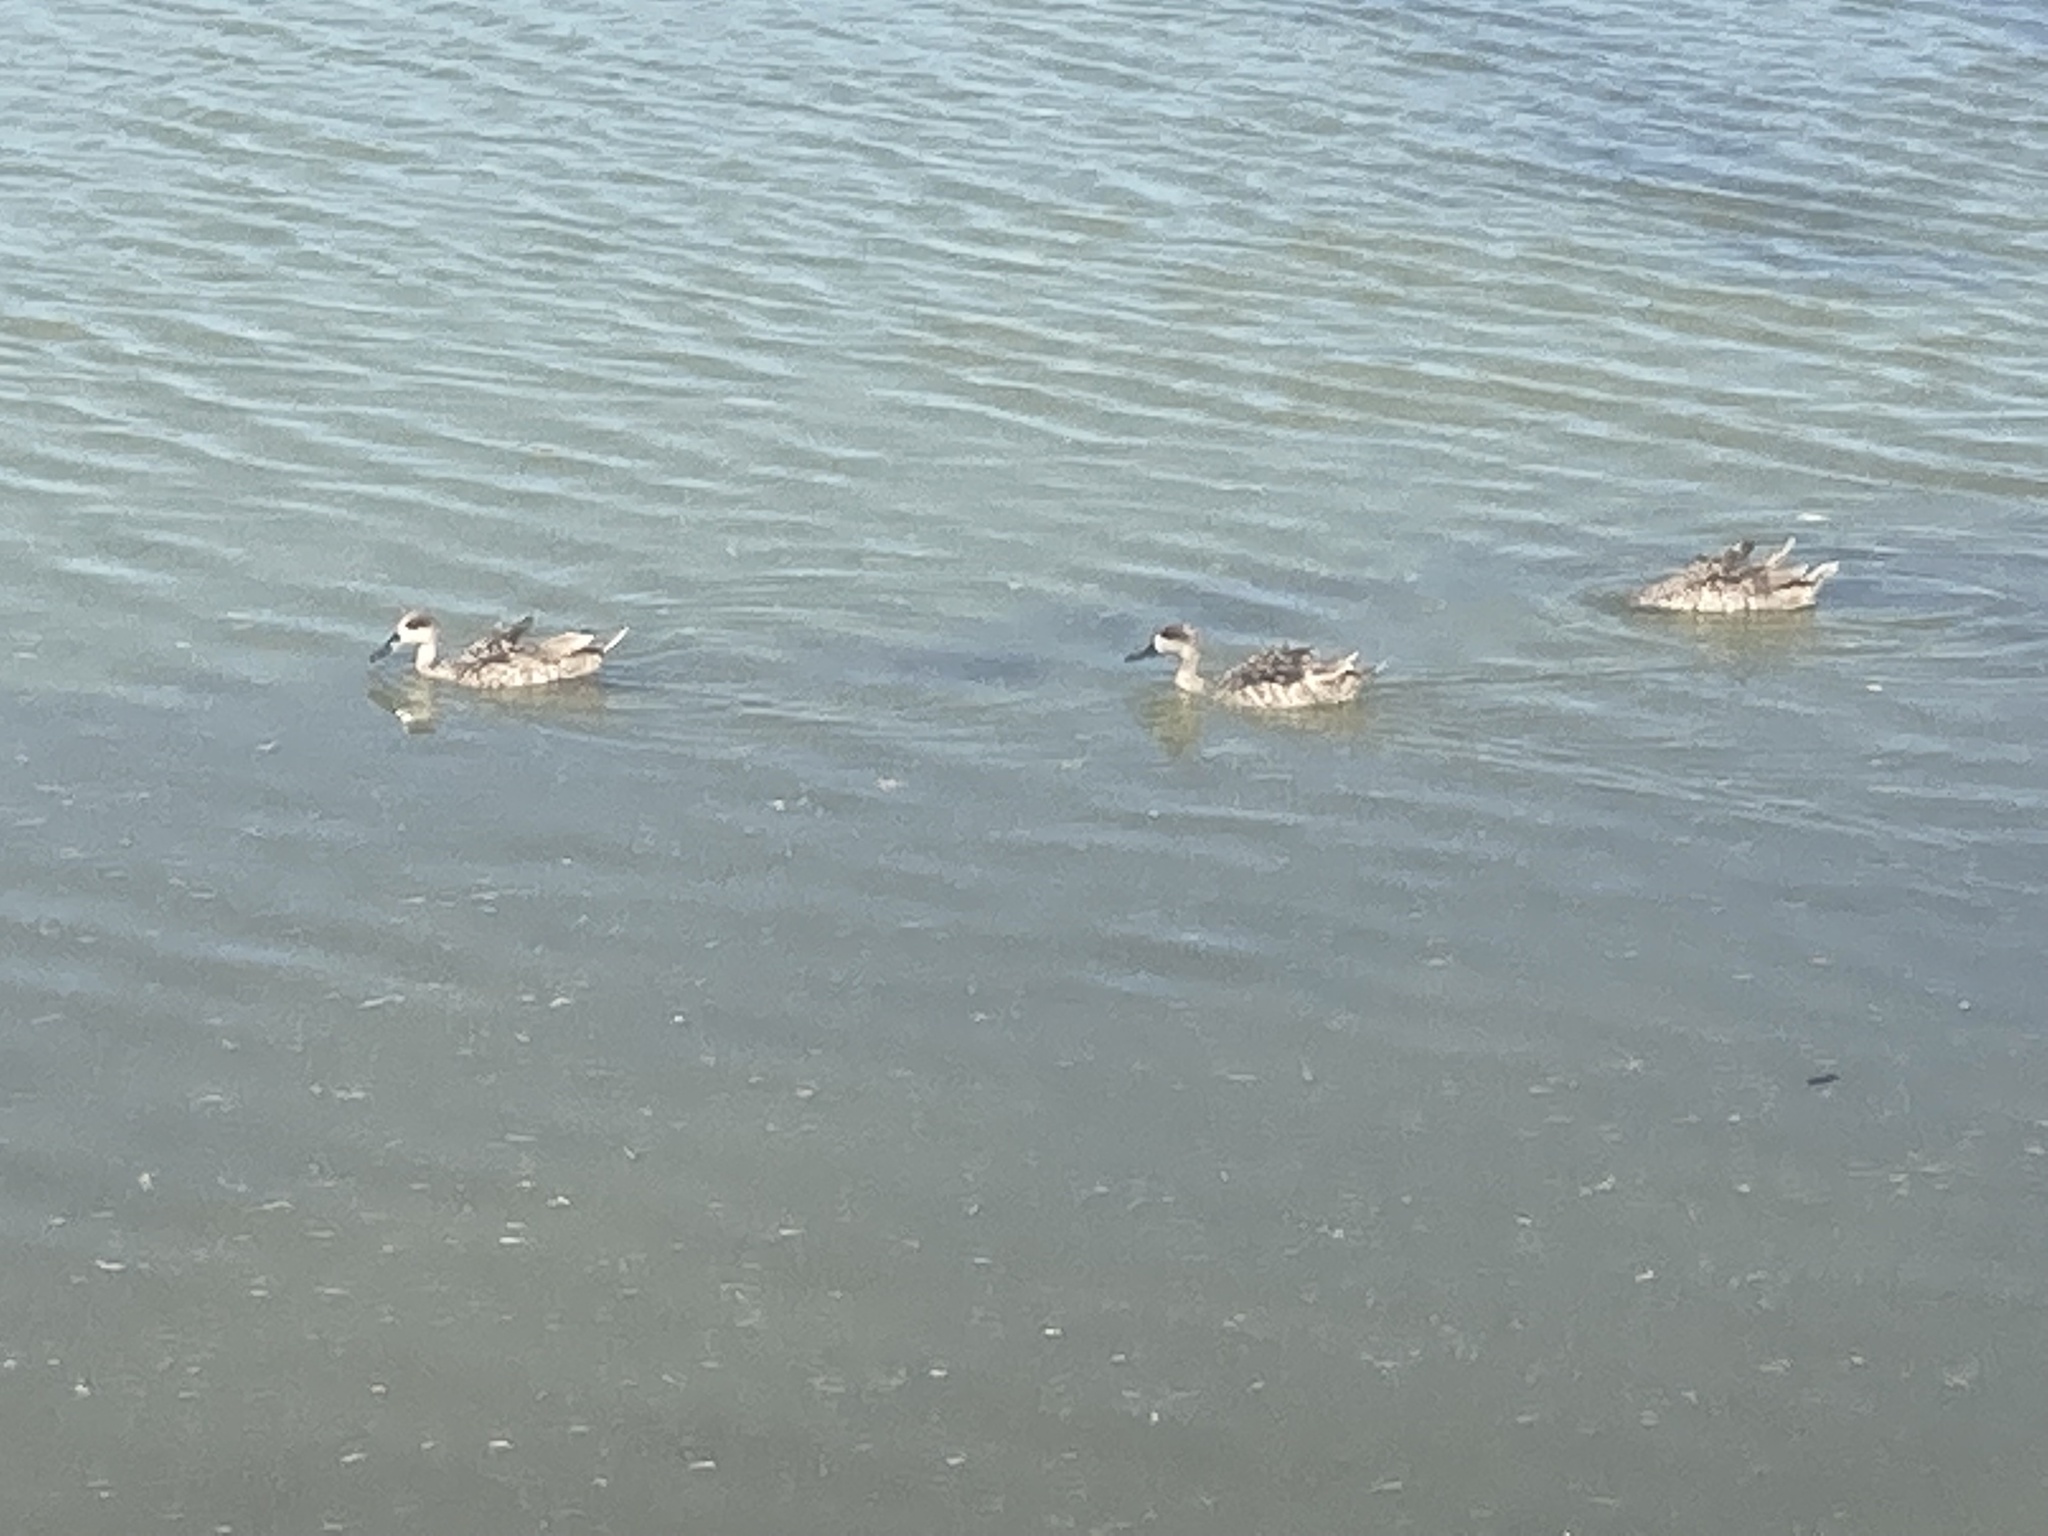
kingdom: Animalia
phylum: Chordata
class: Aves
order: Anseriformes
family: Anatidae
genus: Marmaronetta
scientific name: Marmaronetta angustirostris
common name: Marbled duck
